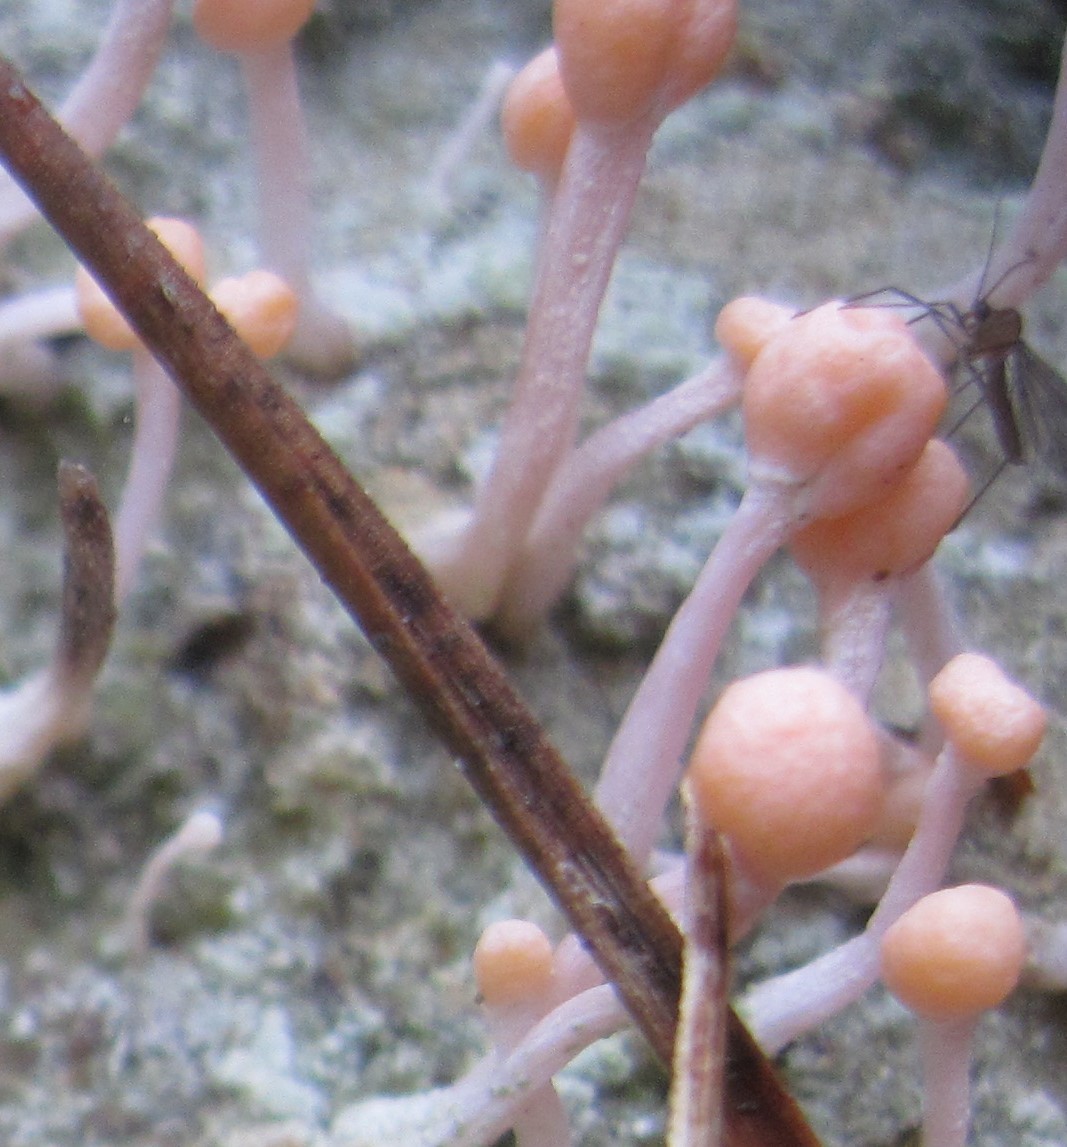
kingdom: Fungi
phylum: Ascomycota
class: Lecanoromycetes
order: Pertusariales
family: Icmadophilaceae
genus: Dibaeis
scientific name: Dibaeis arcuata
